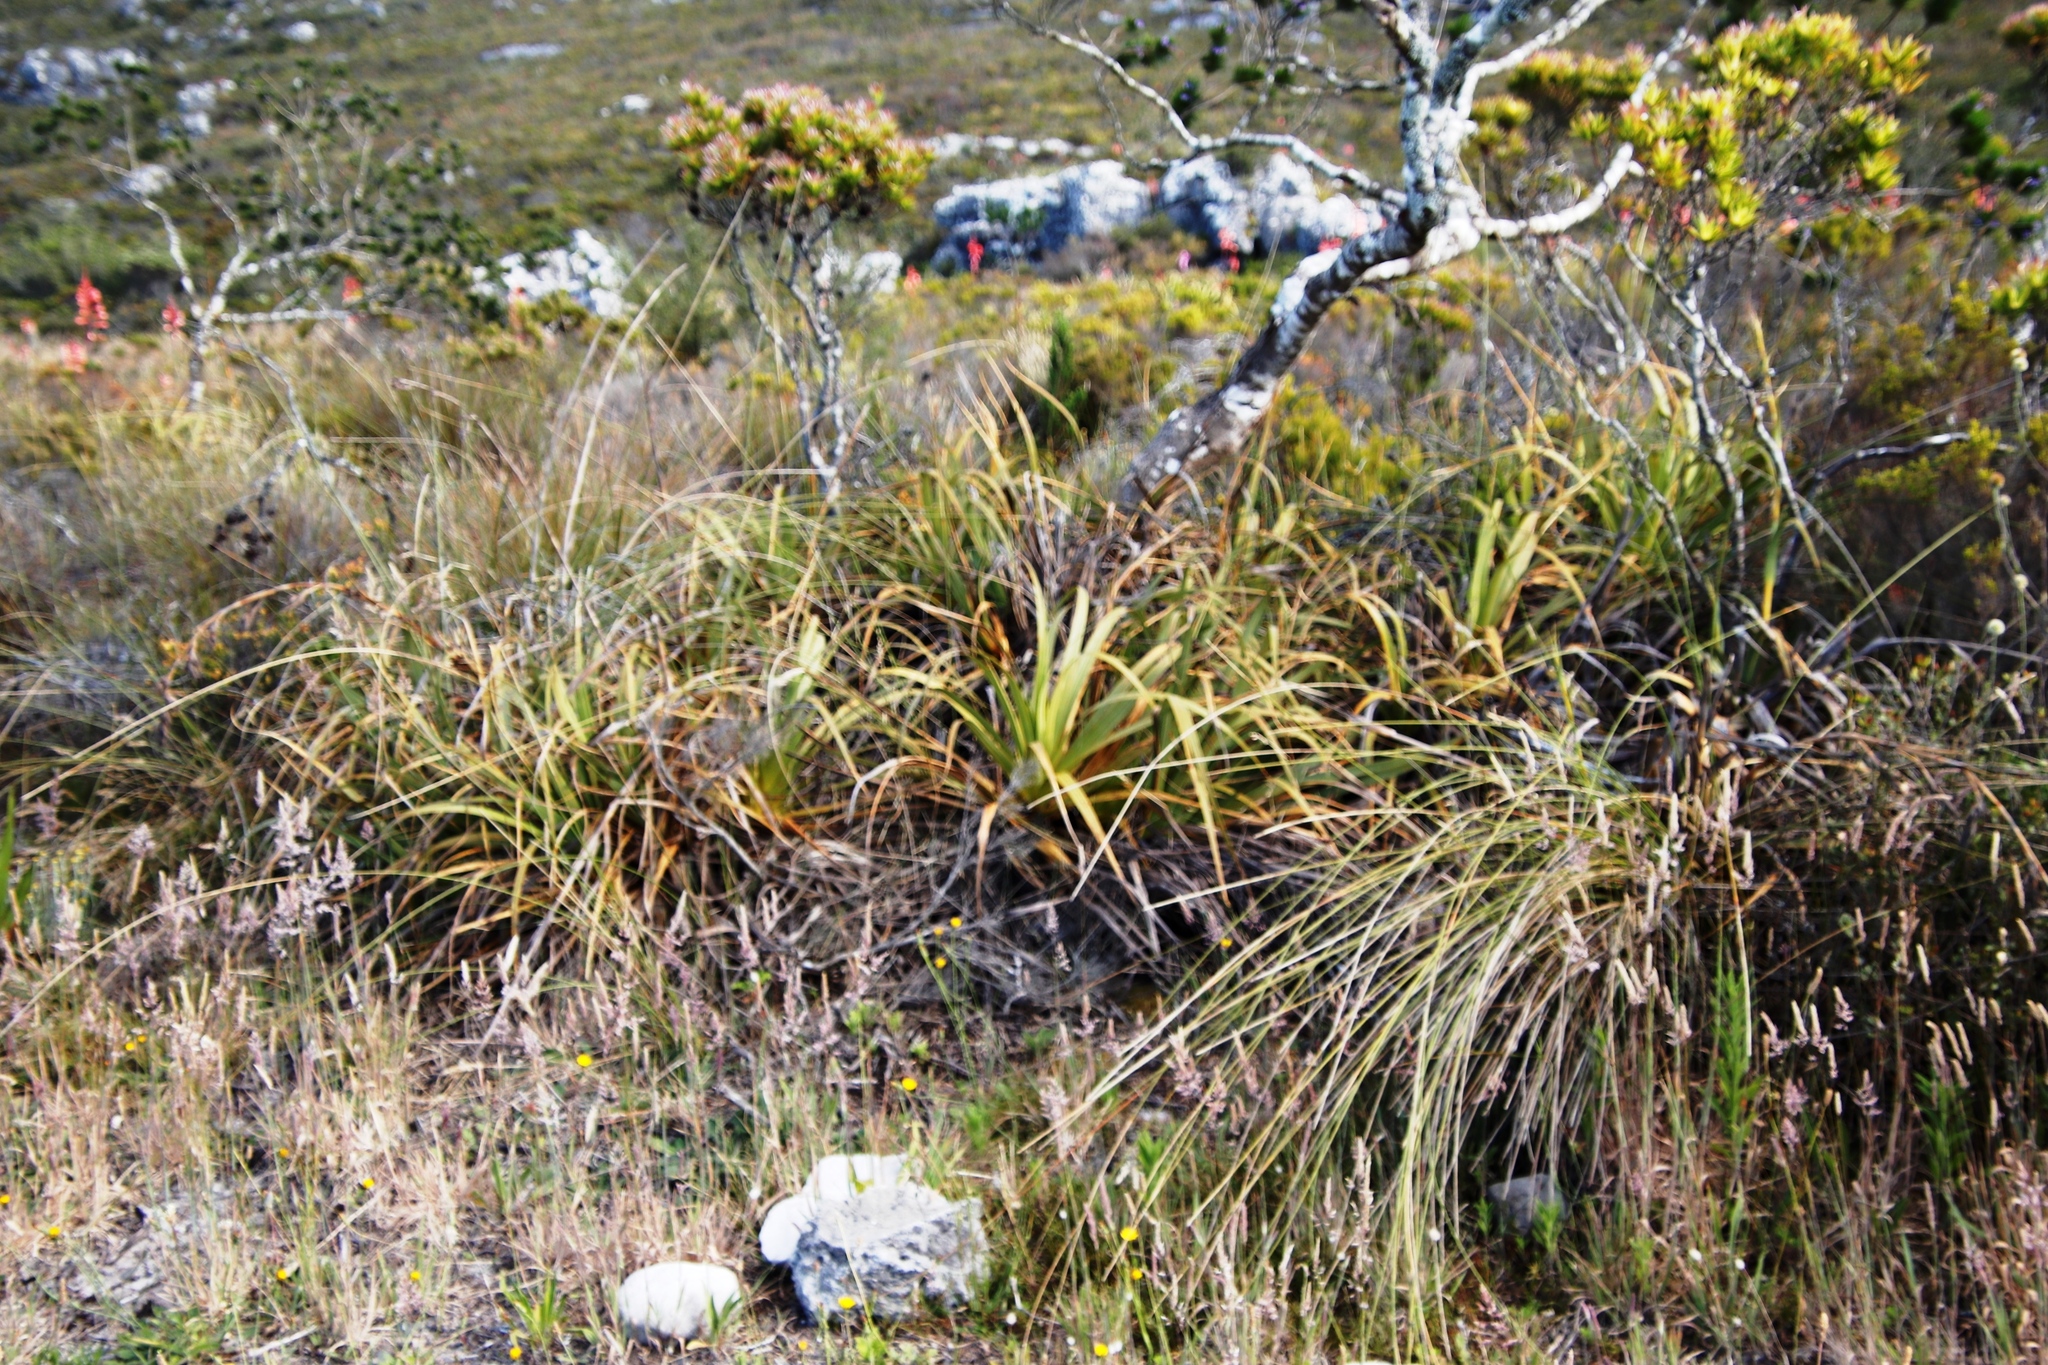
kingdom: Plantae
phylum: Tracheophyta
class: Liliopsida
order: Poales
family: Cyperaceae
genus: Tetraria
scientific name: Tetraria thermalis
